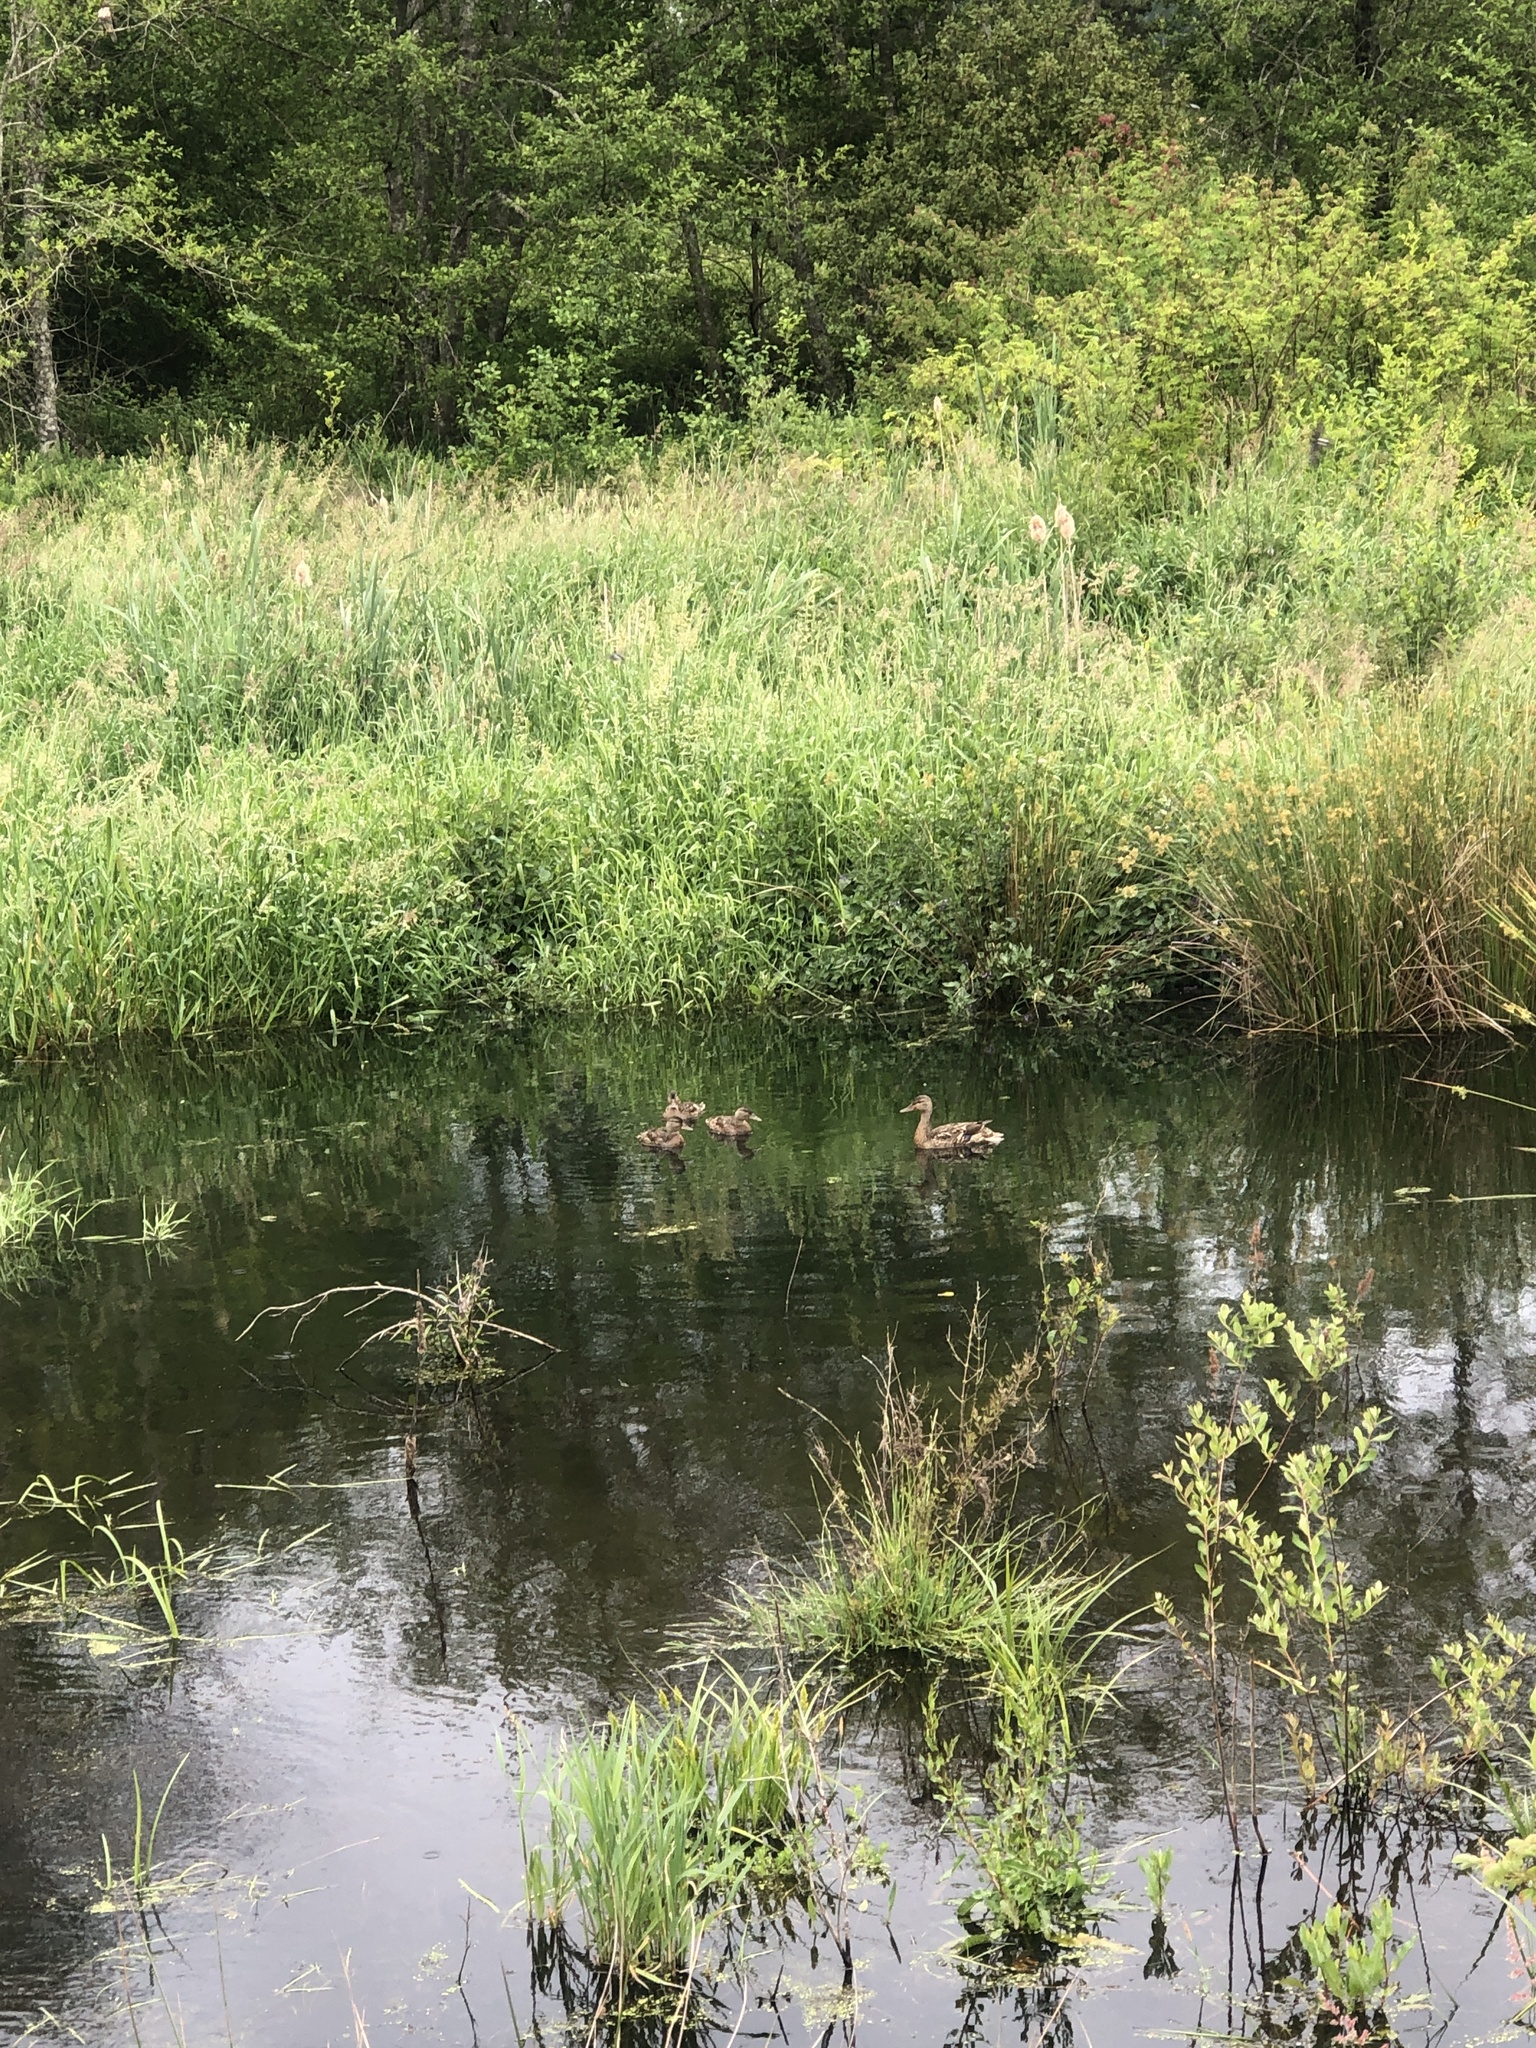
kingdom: Animalia
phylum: Chordata
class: Aves
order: Anseriformes
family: Anatidae
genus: Anas
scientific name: Anas platyrhynchos
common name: Mallard
